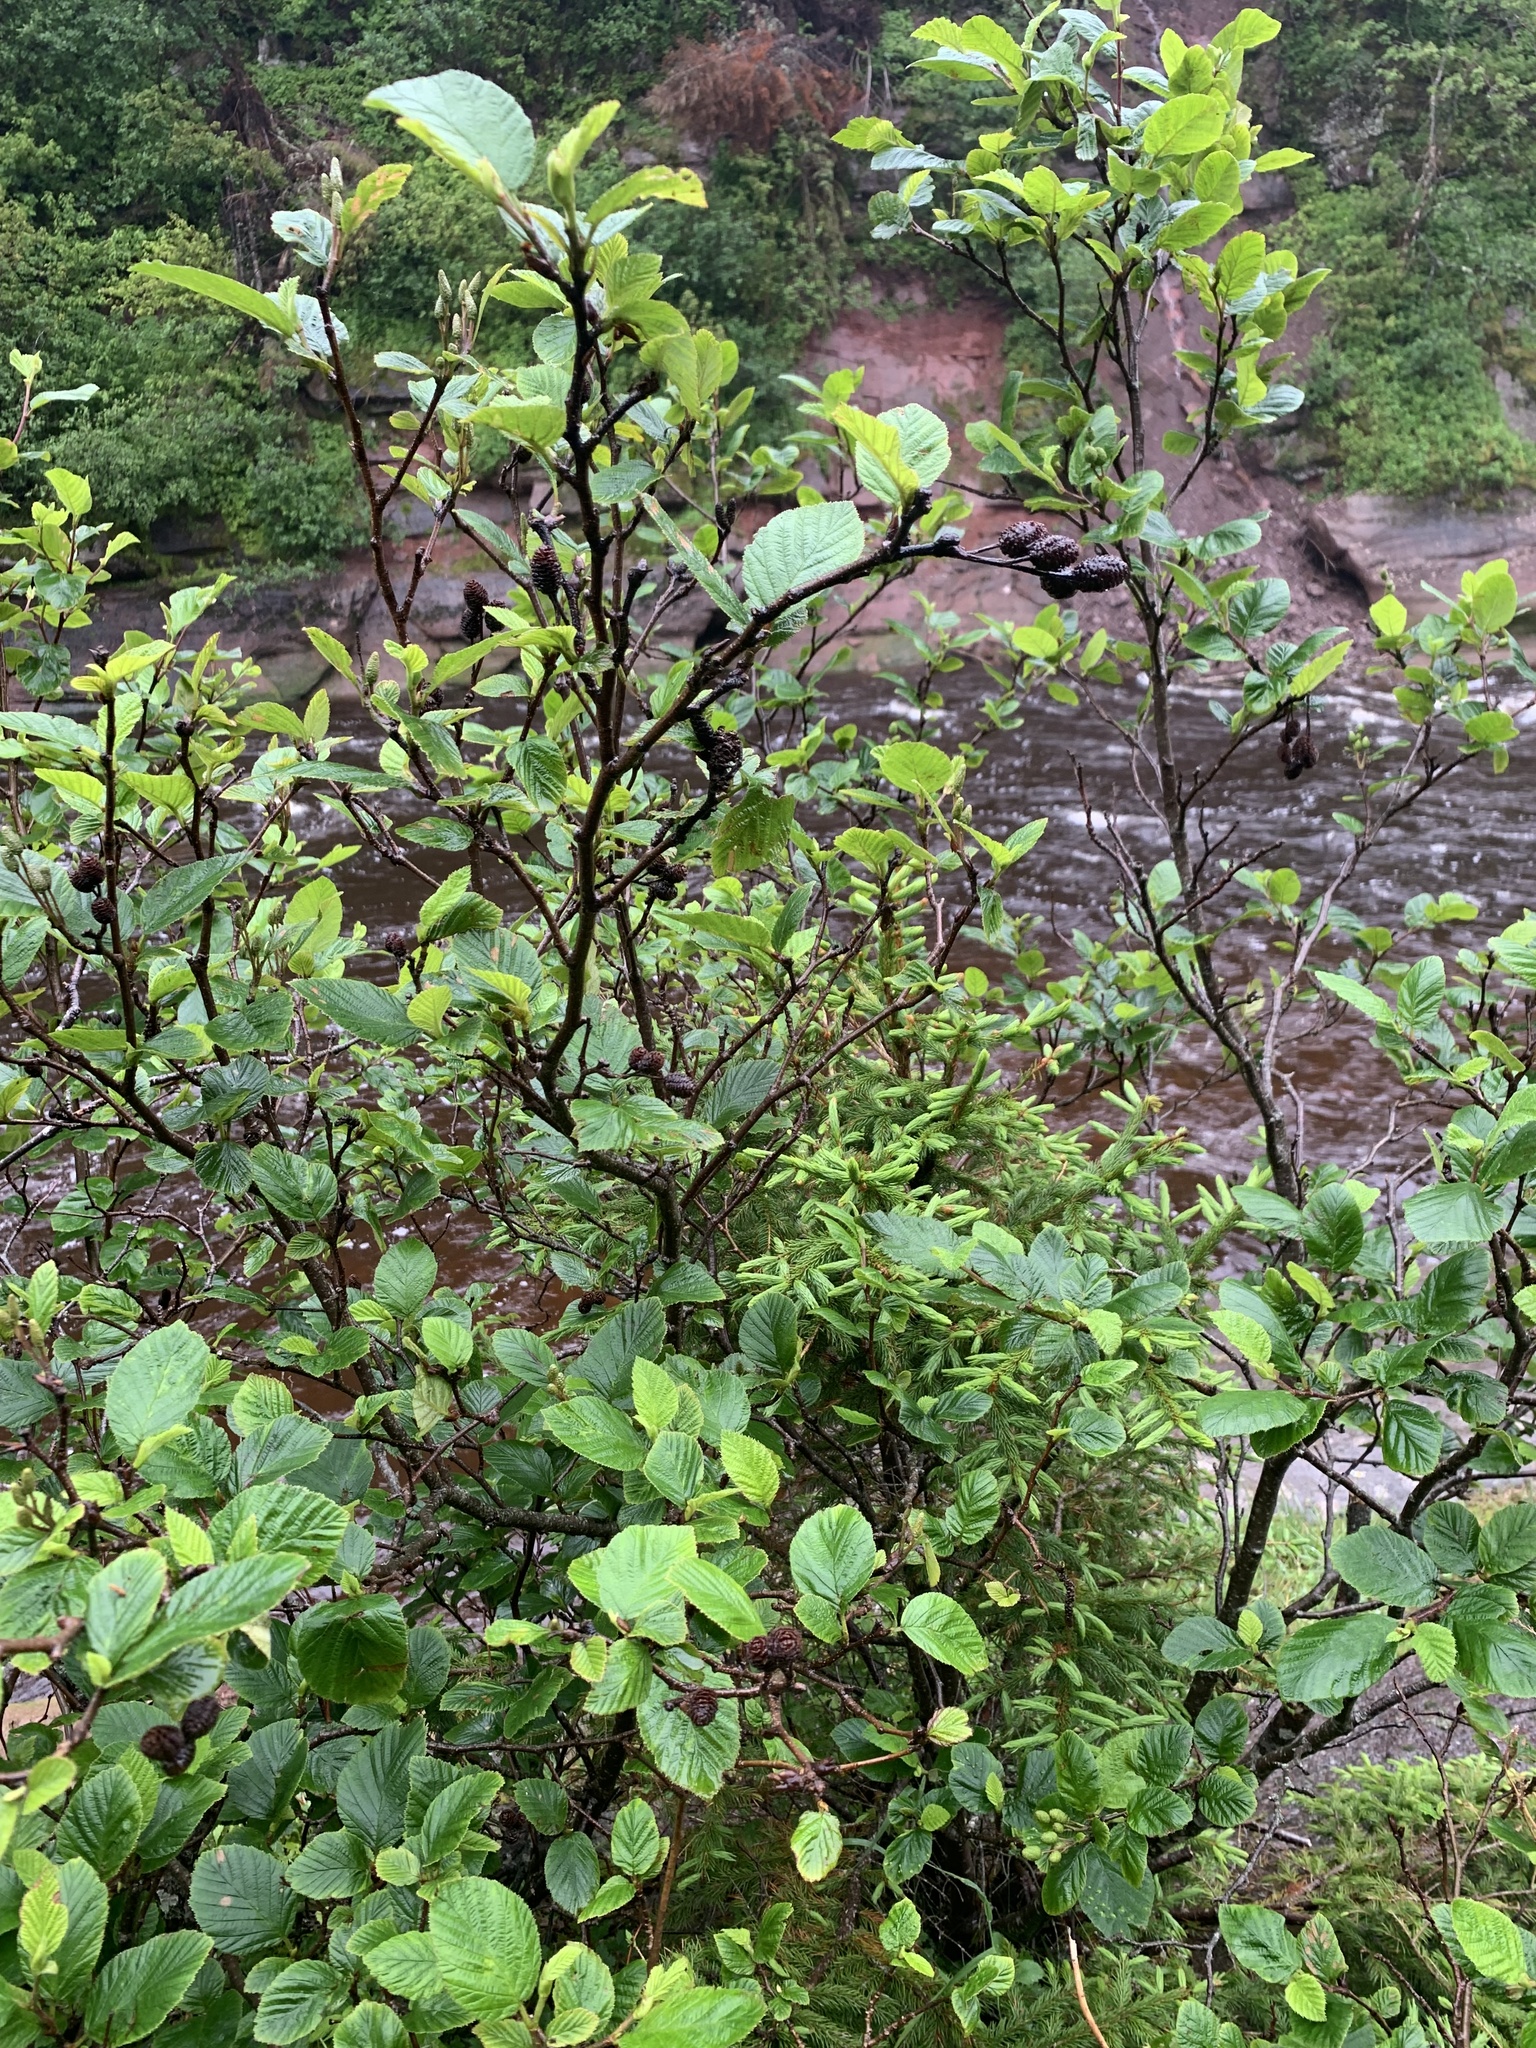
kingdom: Plantae
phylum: Tracheophyta
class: Magnoliopsida
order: Fagales
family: Betulaceae
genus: Alnus
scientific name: Alnus alnobetula
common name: Green alder
